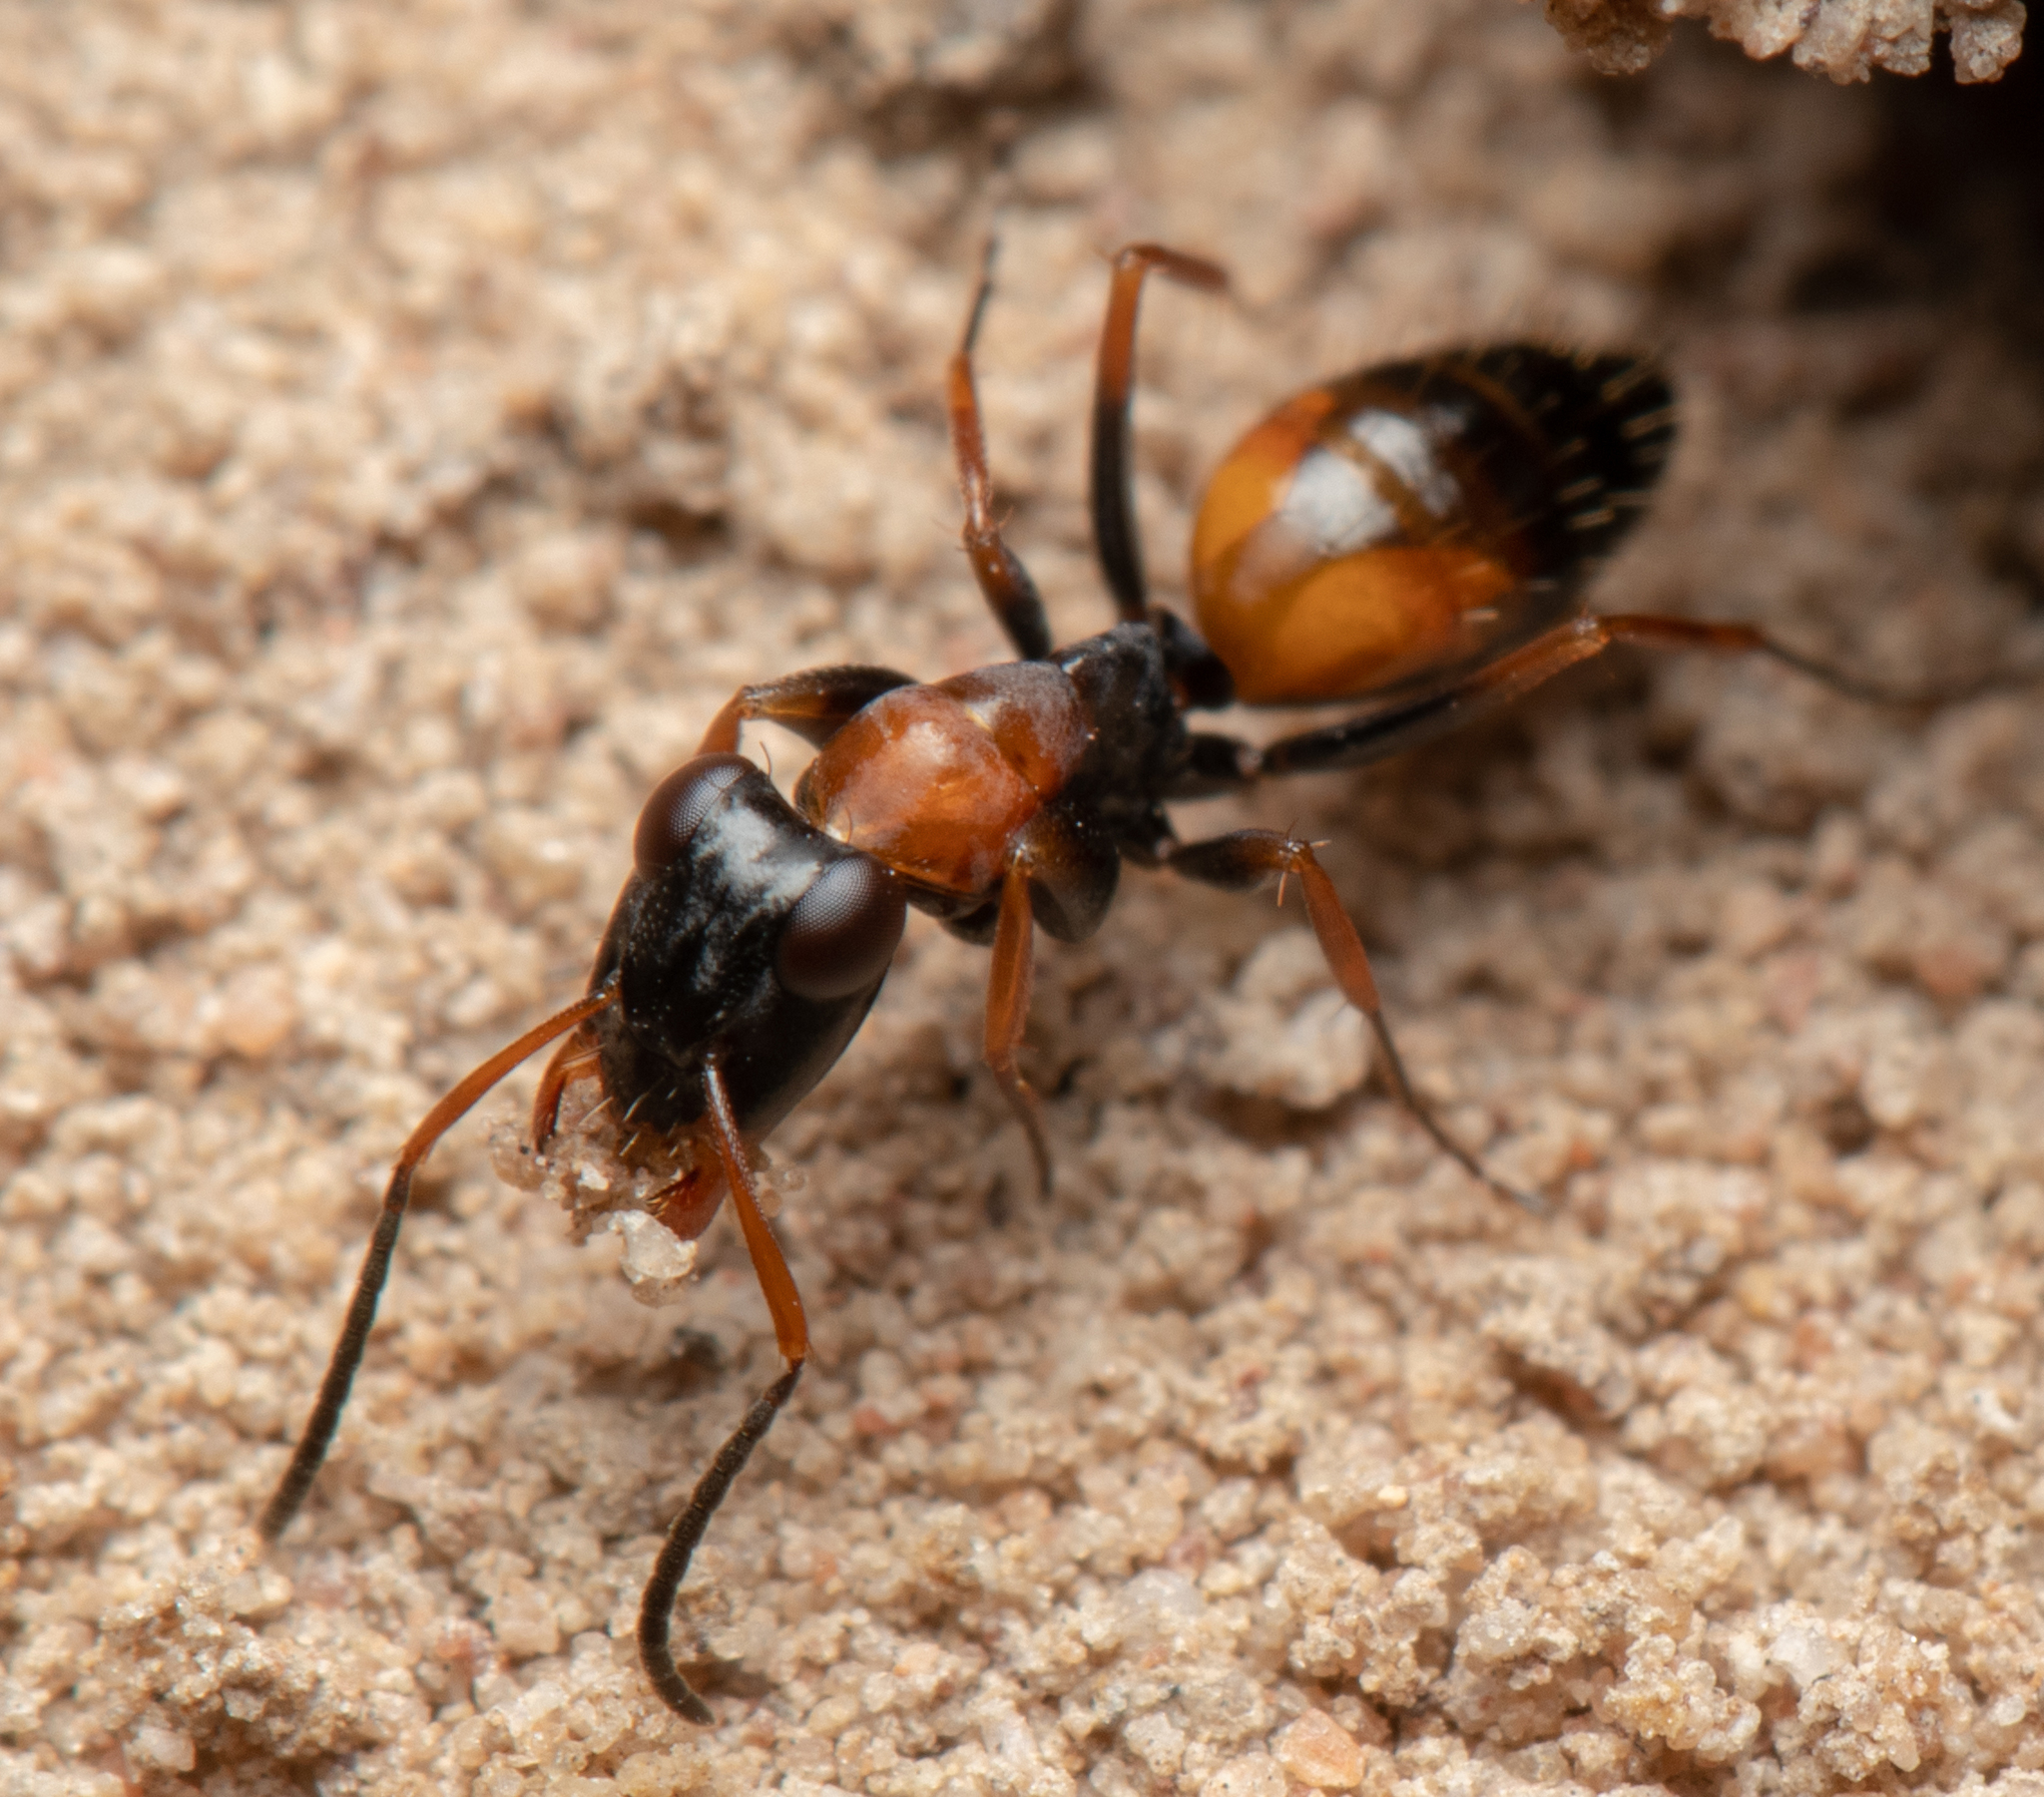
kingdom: Animalia
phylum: Arthropoda
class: Insecta
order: Hymenoptera
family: Formicidae
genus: Opisthopsis
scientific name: Opisthopsis pictus
